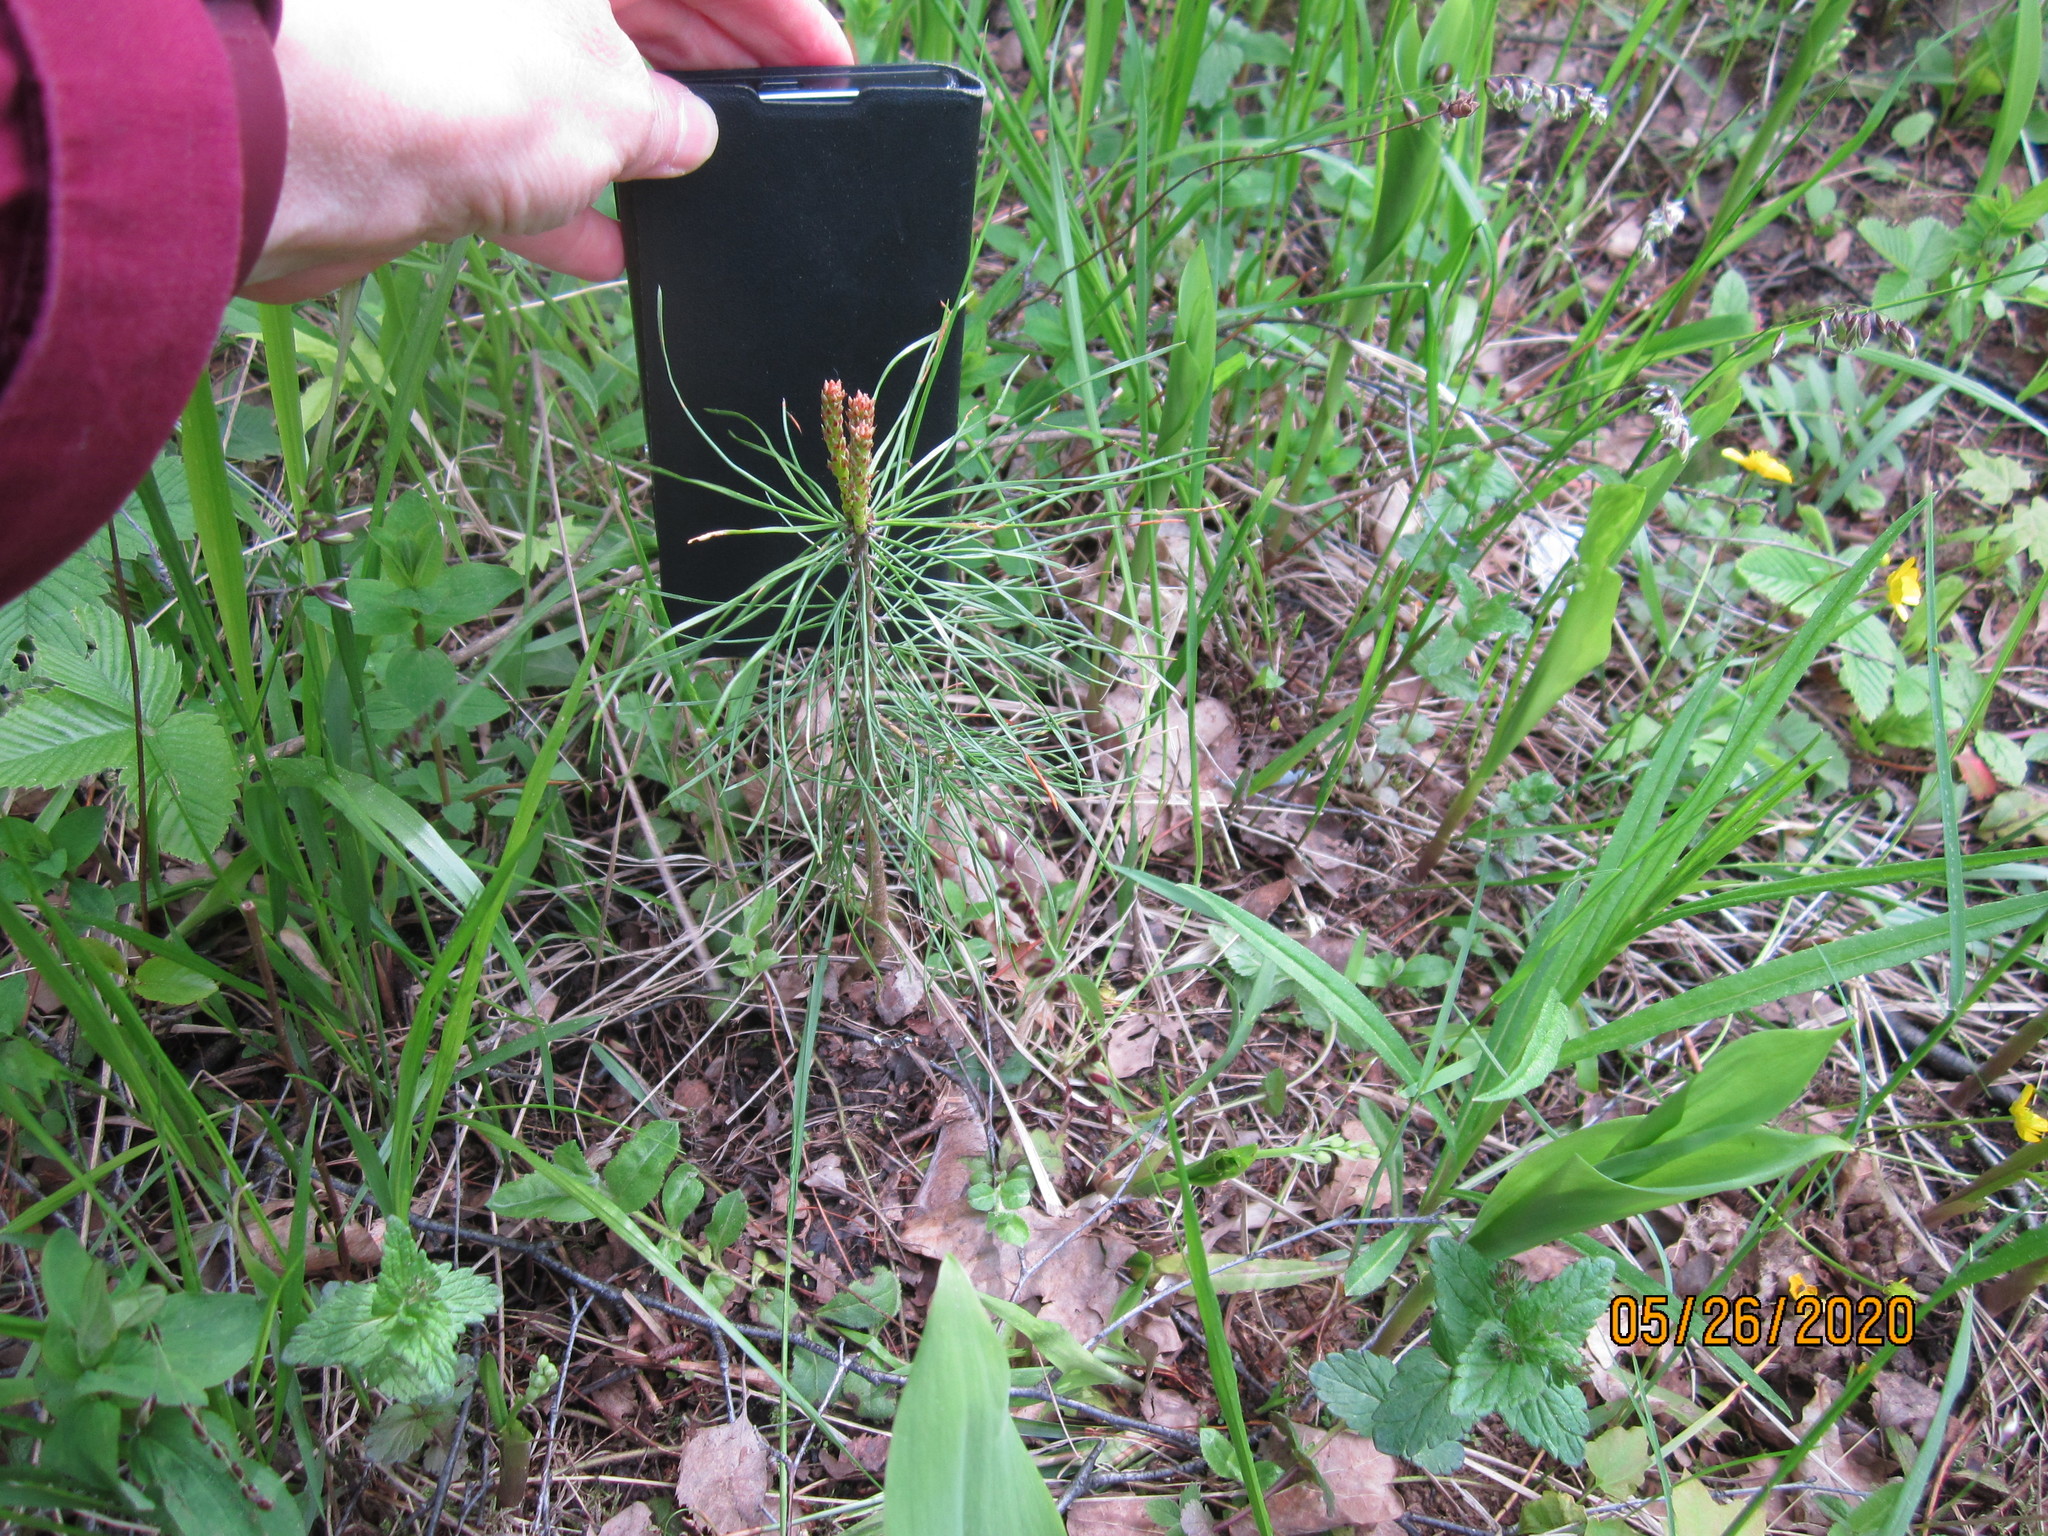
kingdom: Plantae
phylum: Tracheophyta
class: Pinopsida
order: Pinales
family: Pinaceae
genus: Pinus
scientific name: Pinus sylvestris
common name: Scots pine
